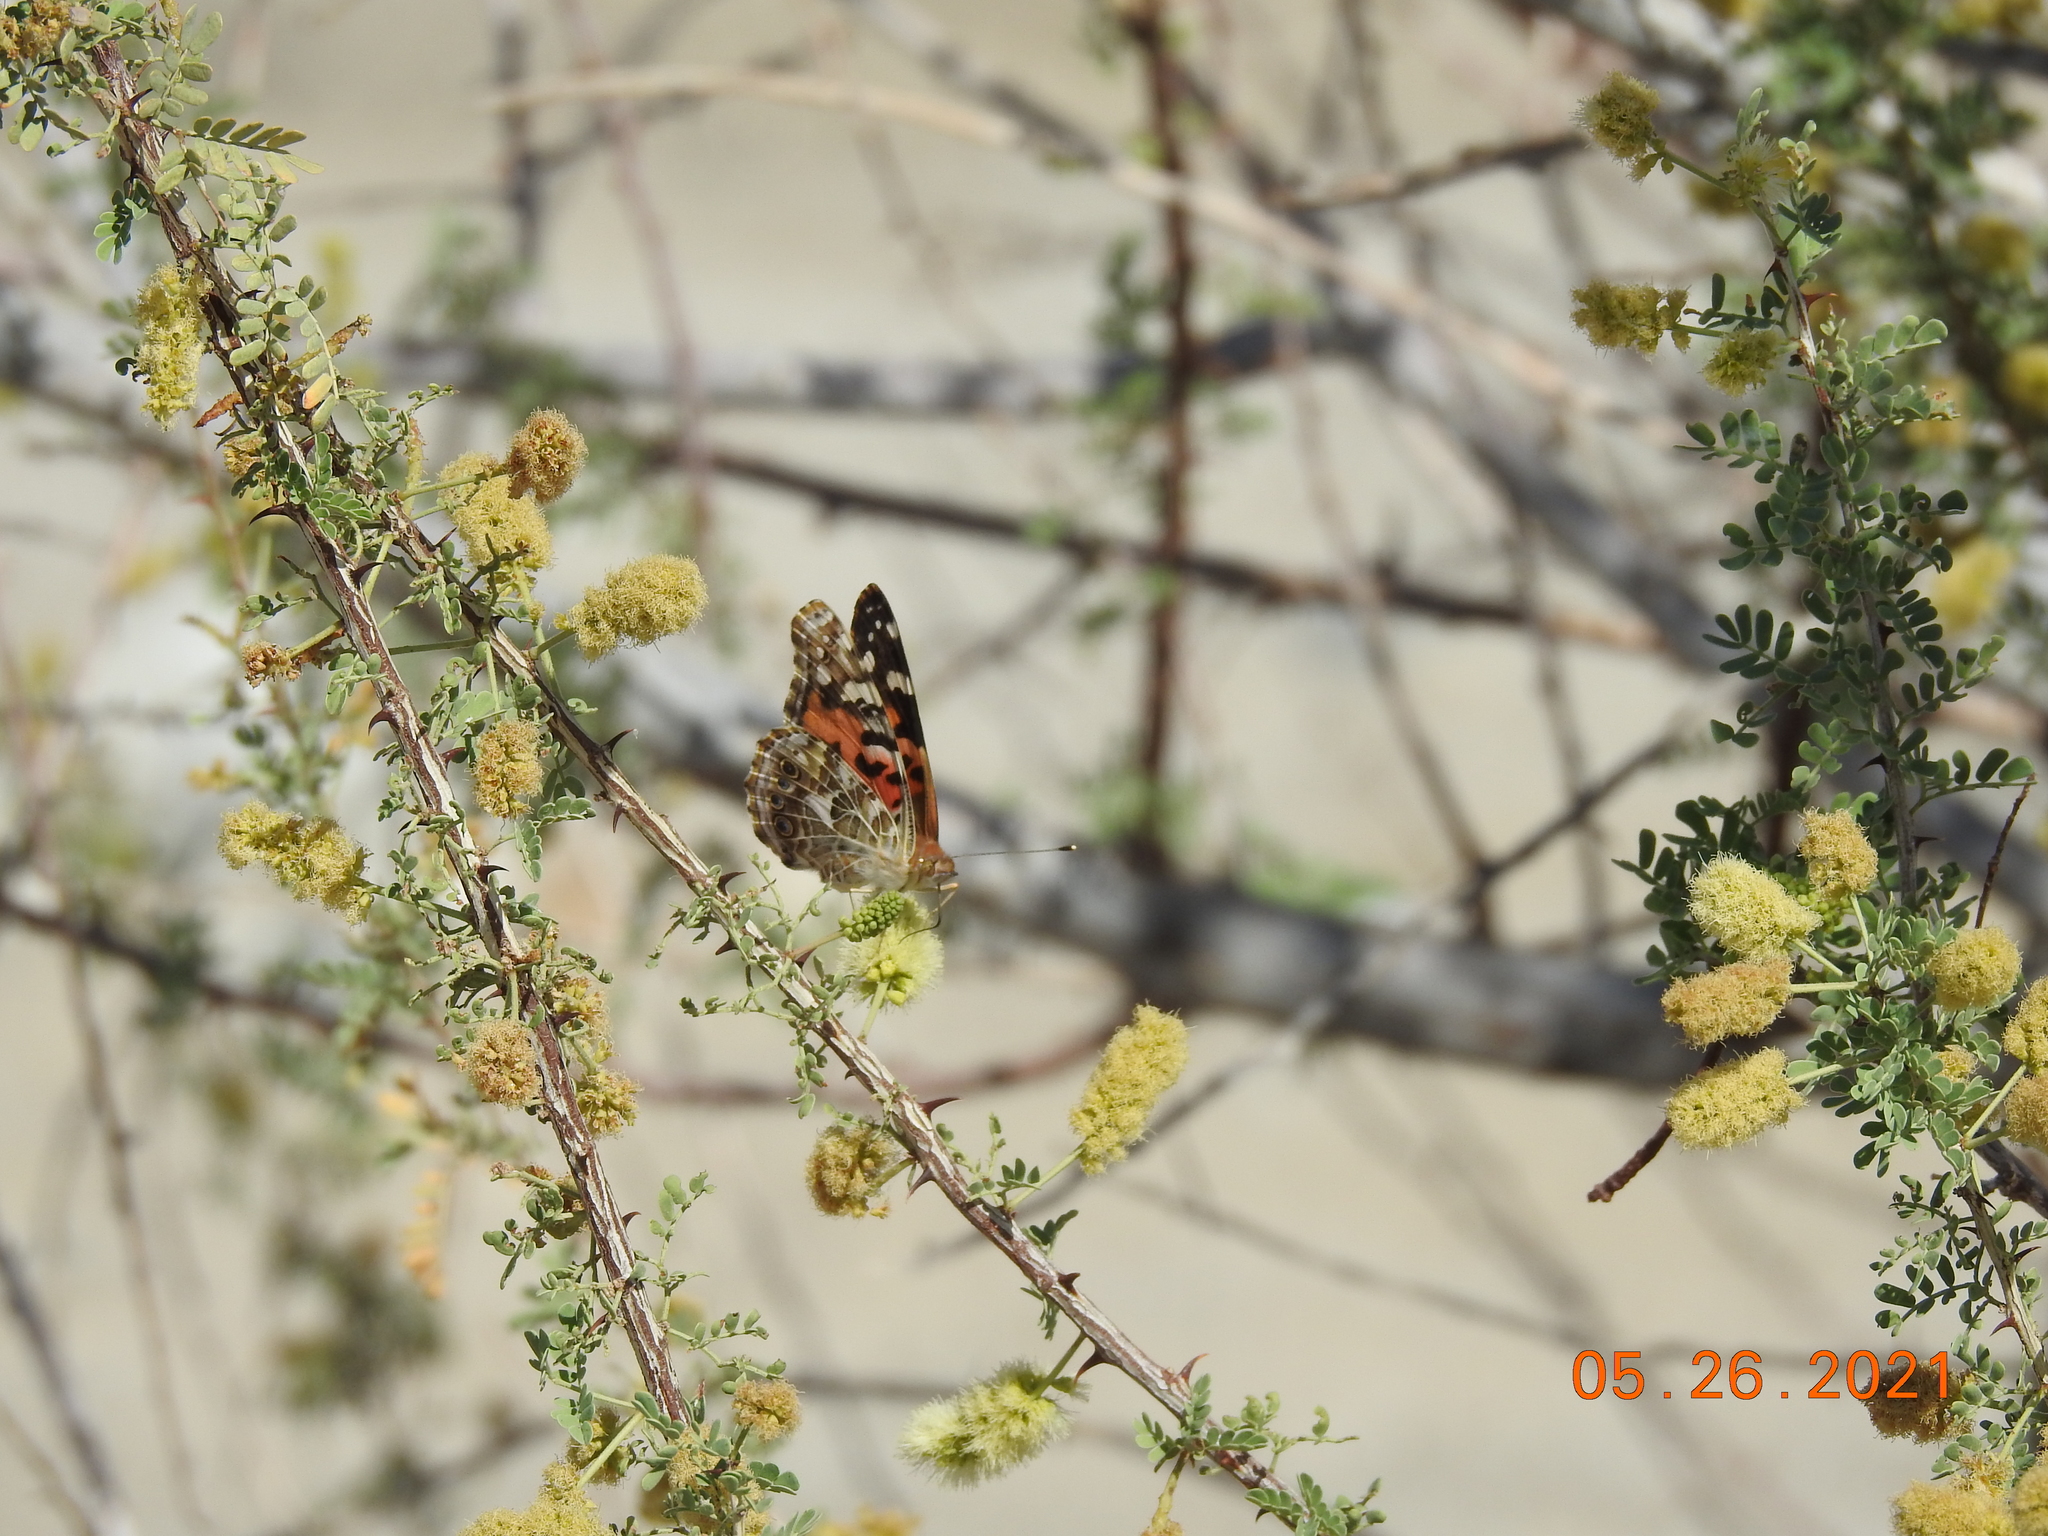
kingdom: Animalia
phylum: Arthropoda
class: Insecta
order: Lepidoptera
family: Nymphalidae
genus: Vanessa
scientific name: Vanessa cardui
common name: Painted lady
